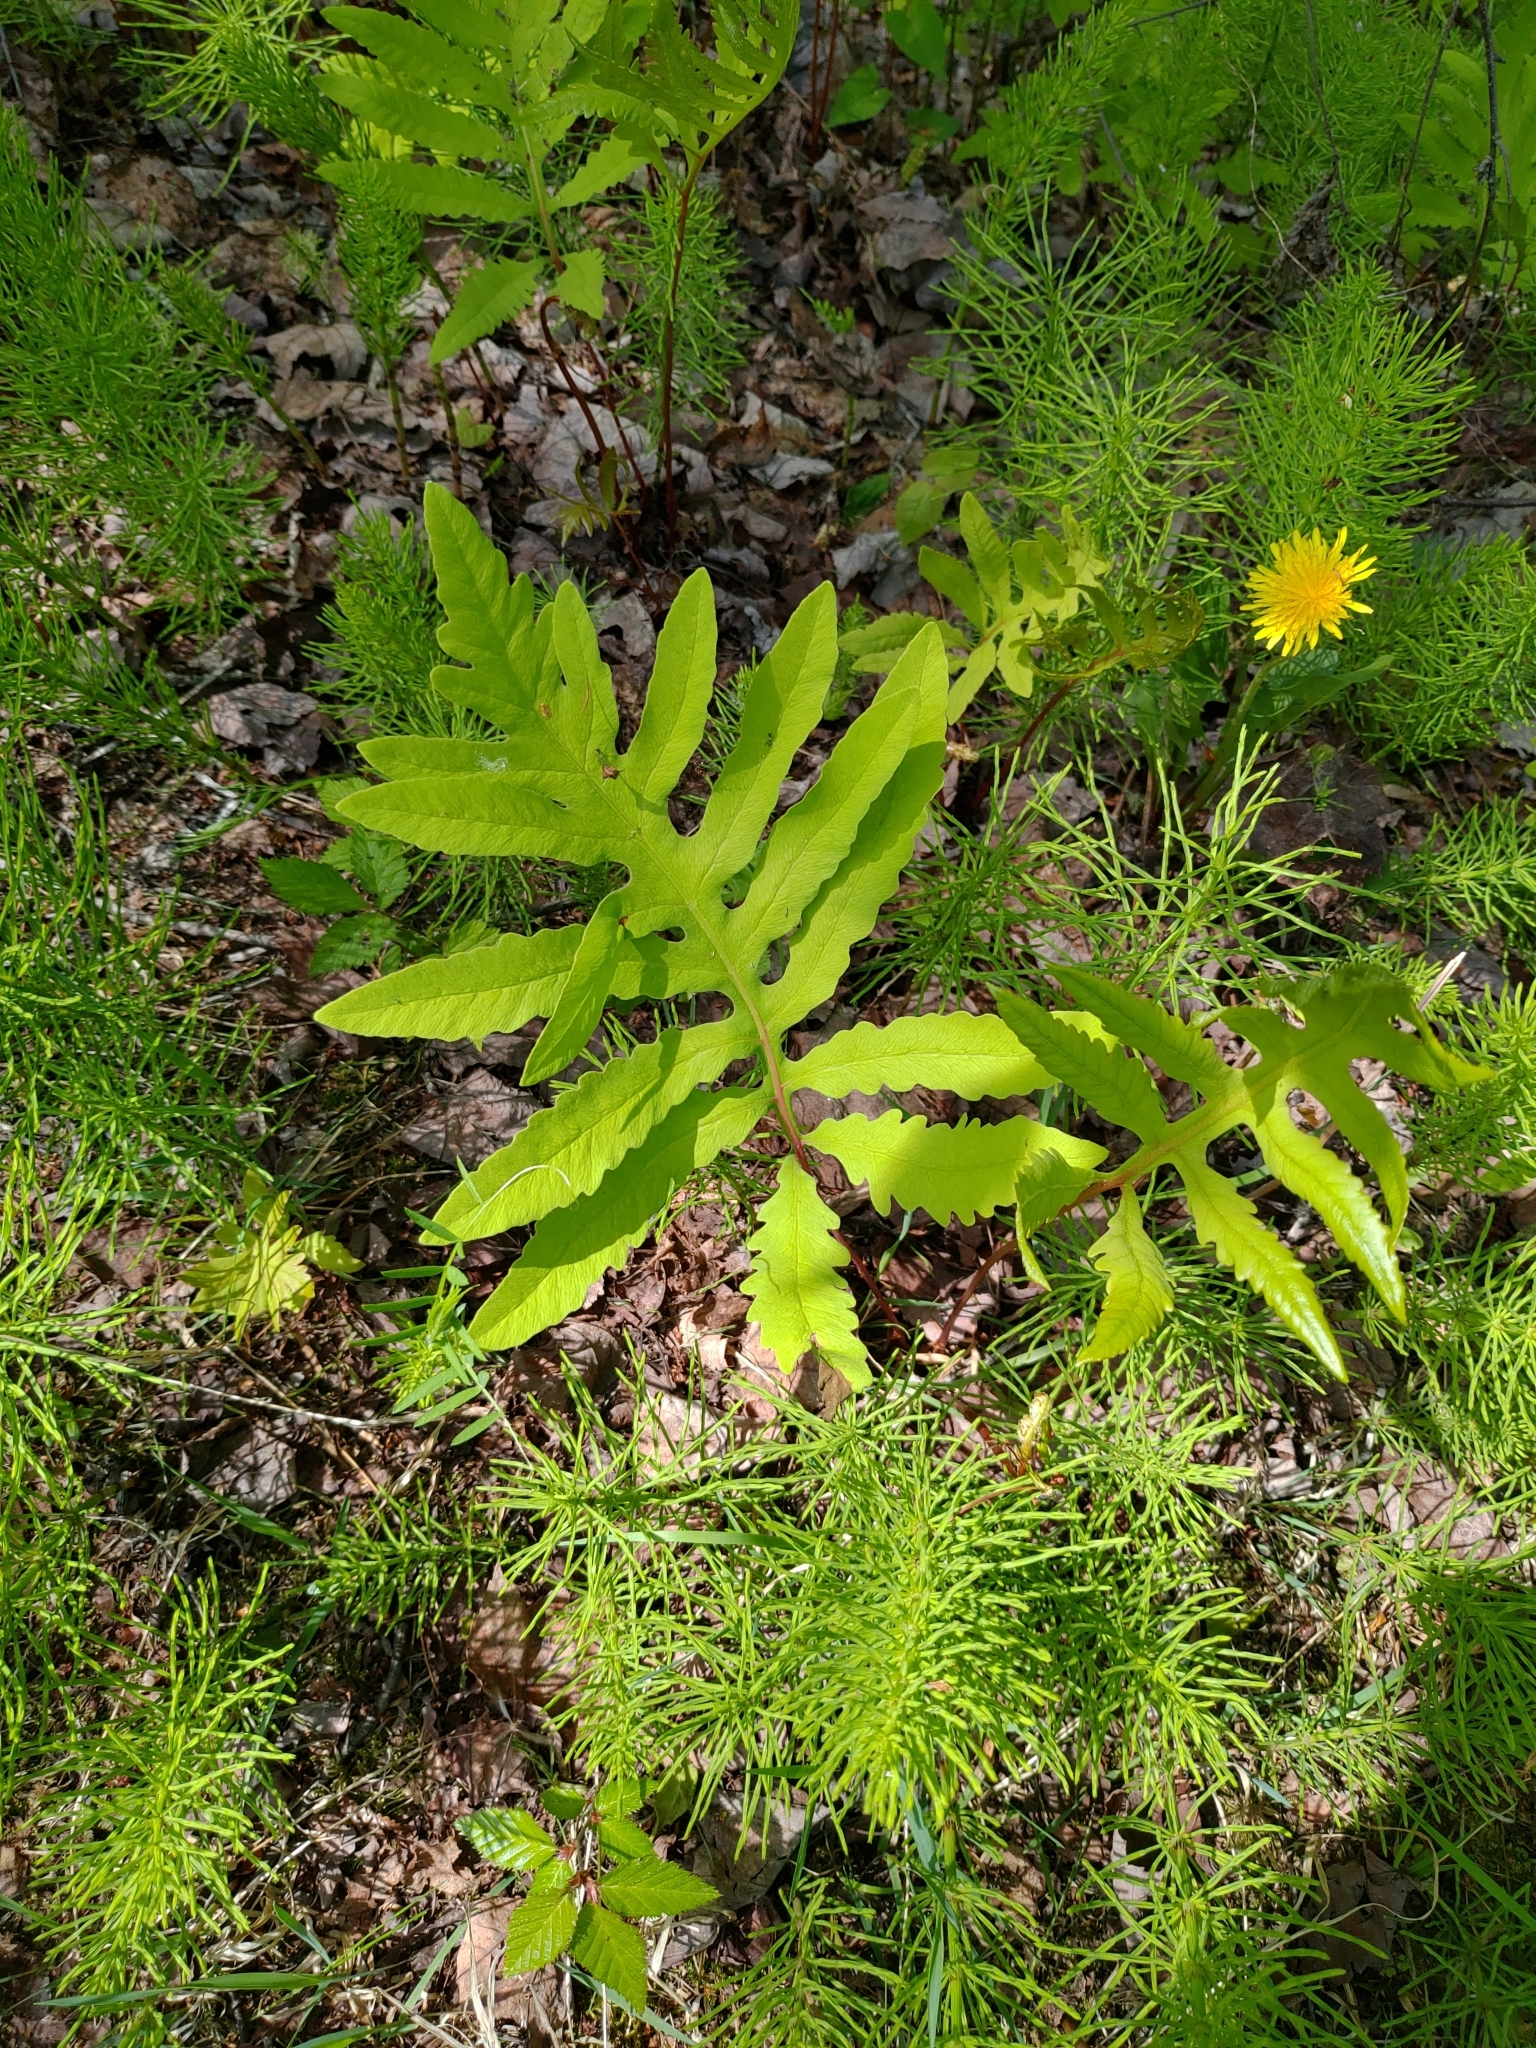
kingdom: Plantae
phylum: Tracheophyta
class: Polypodiopsida
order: Polypodiales
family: Onocleaceae
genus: Onoclea
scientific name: Onoclea sensibilis
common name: Sensitive fern
